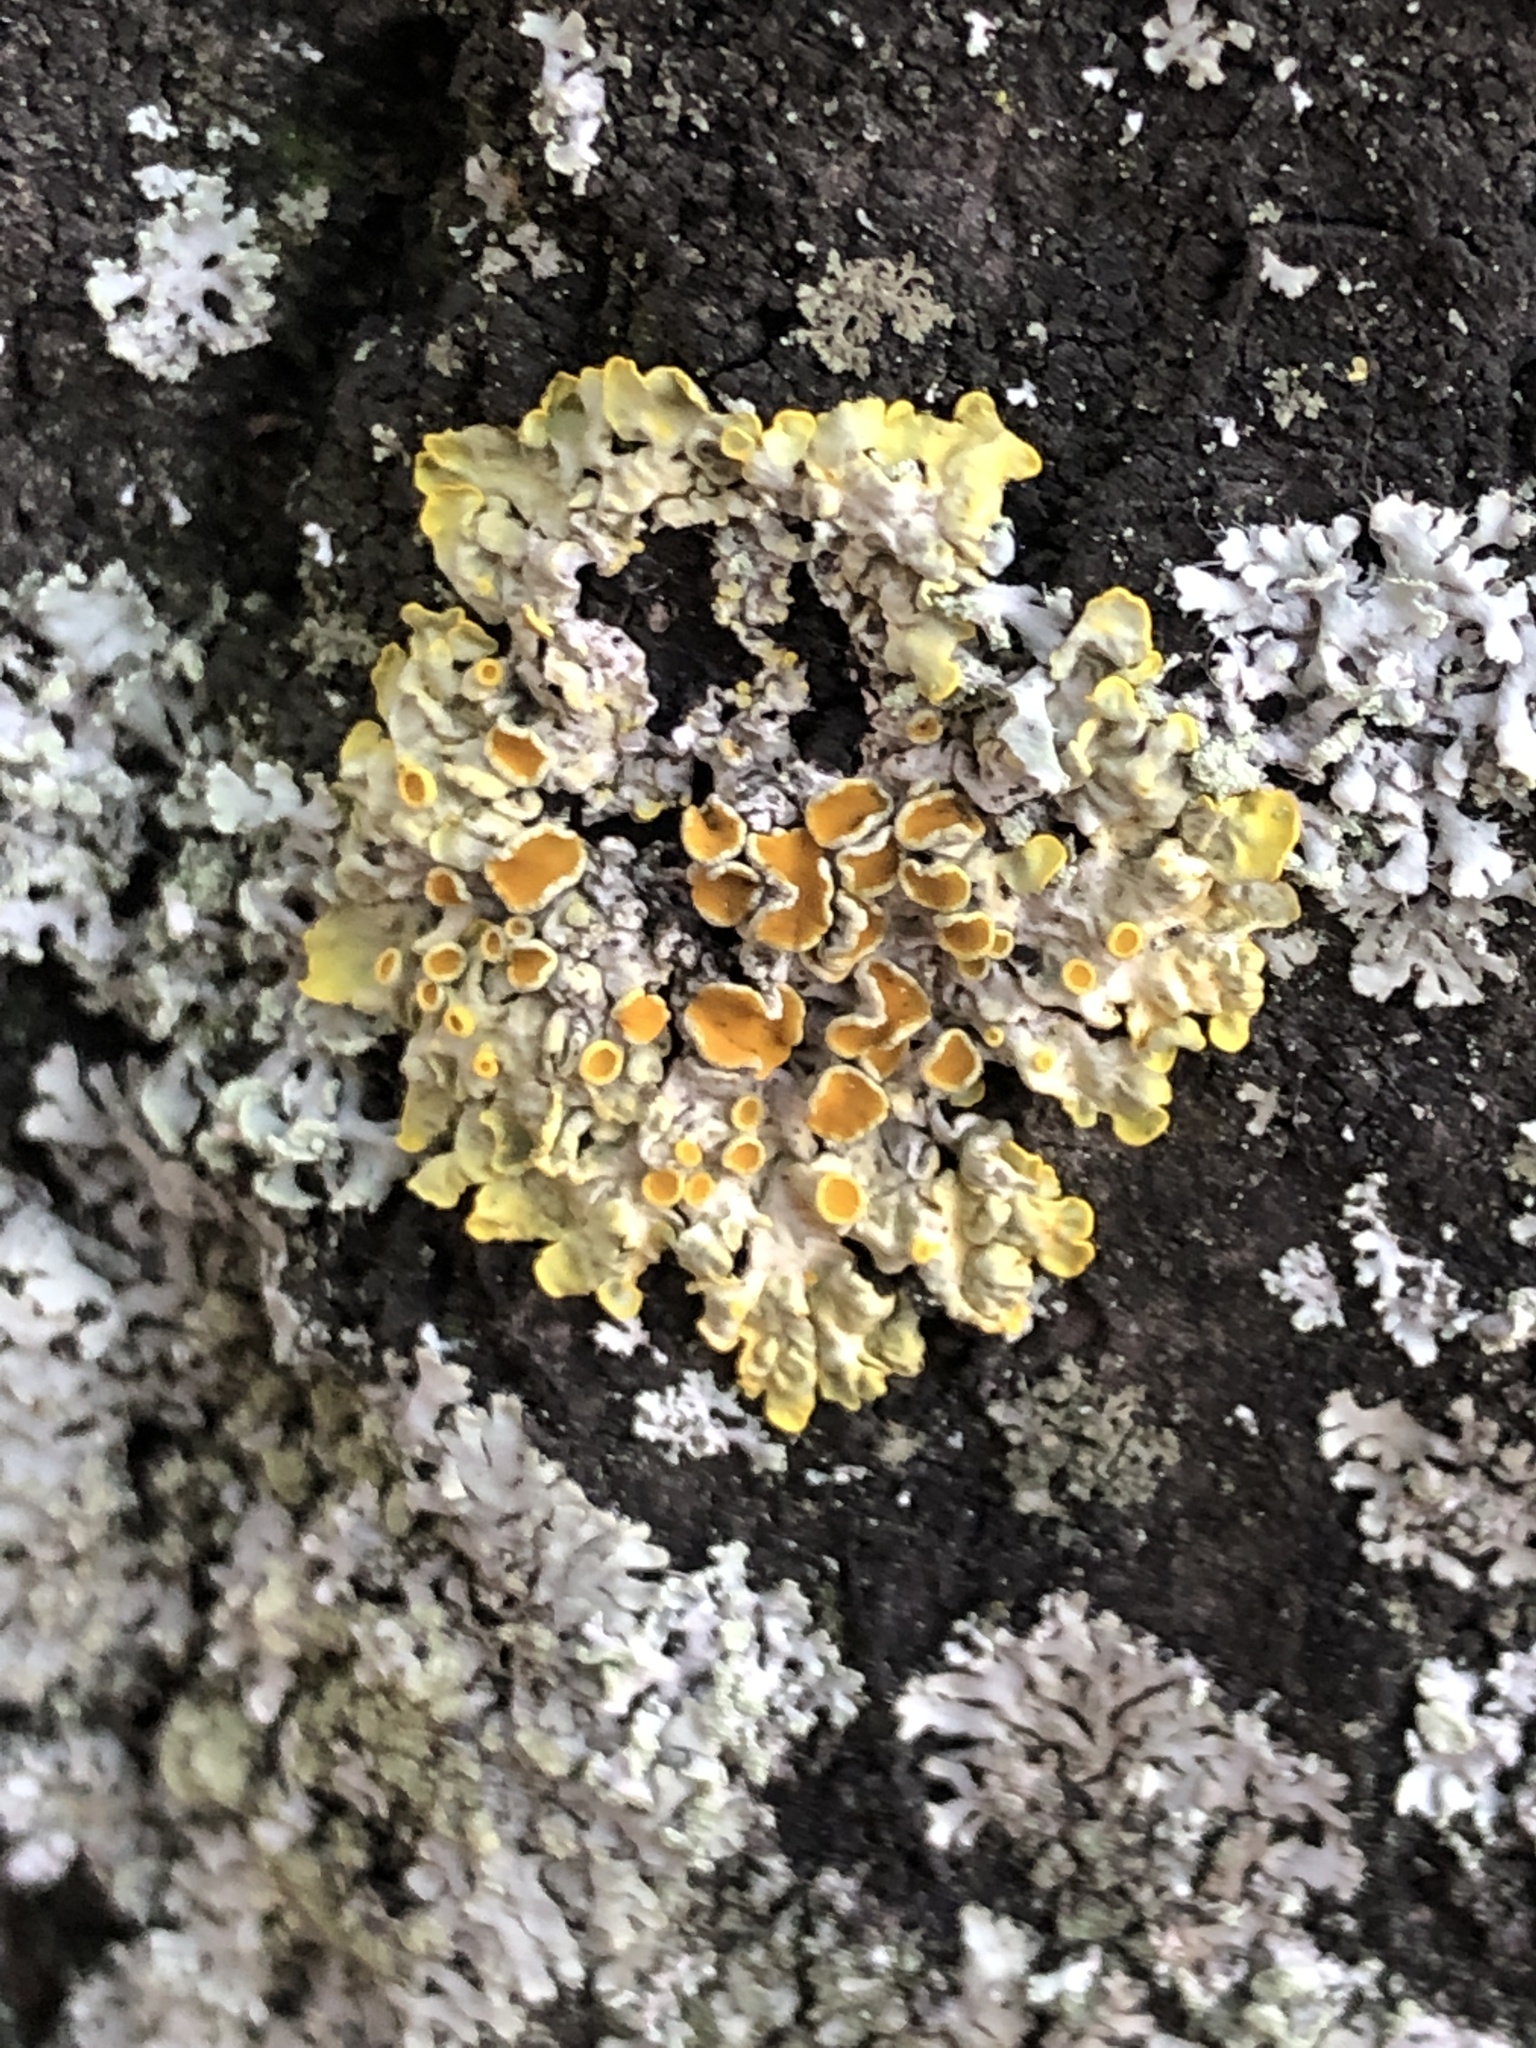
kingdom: Fungi
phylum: Ascomycota
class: Lecanoromycetes
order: Teloschistales
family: Teloschistaceae
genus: Xanthoria
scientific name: Xanthoria parietina
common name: Common orange lichen
